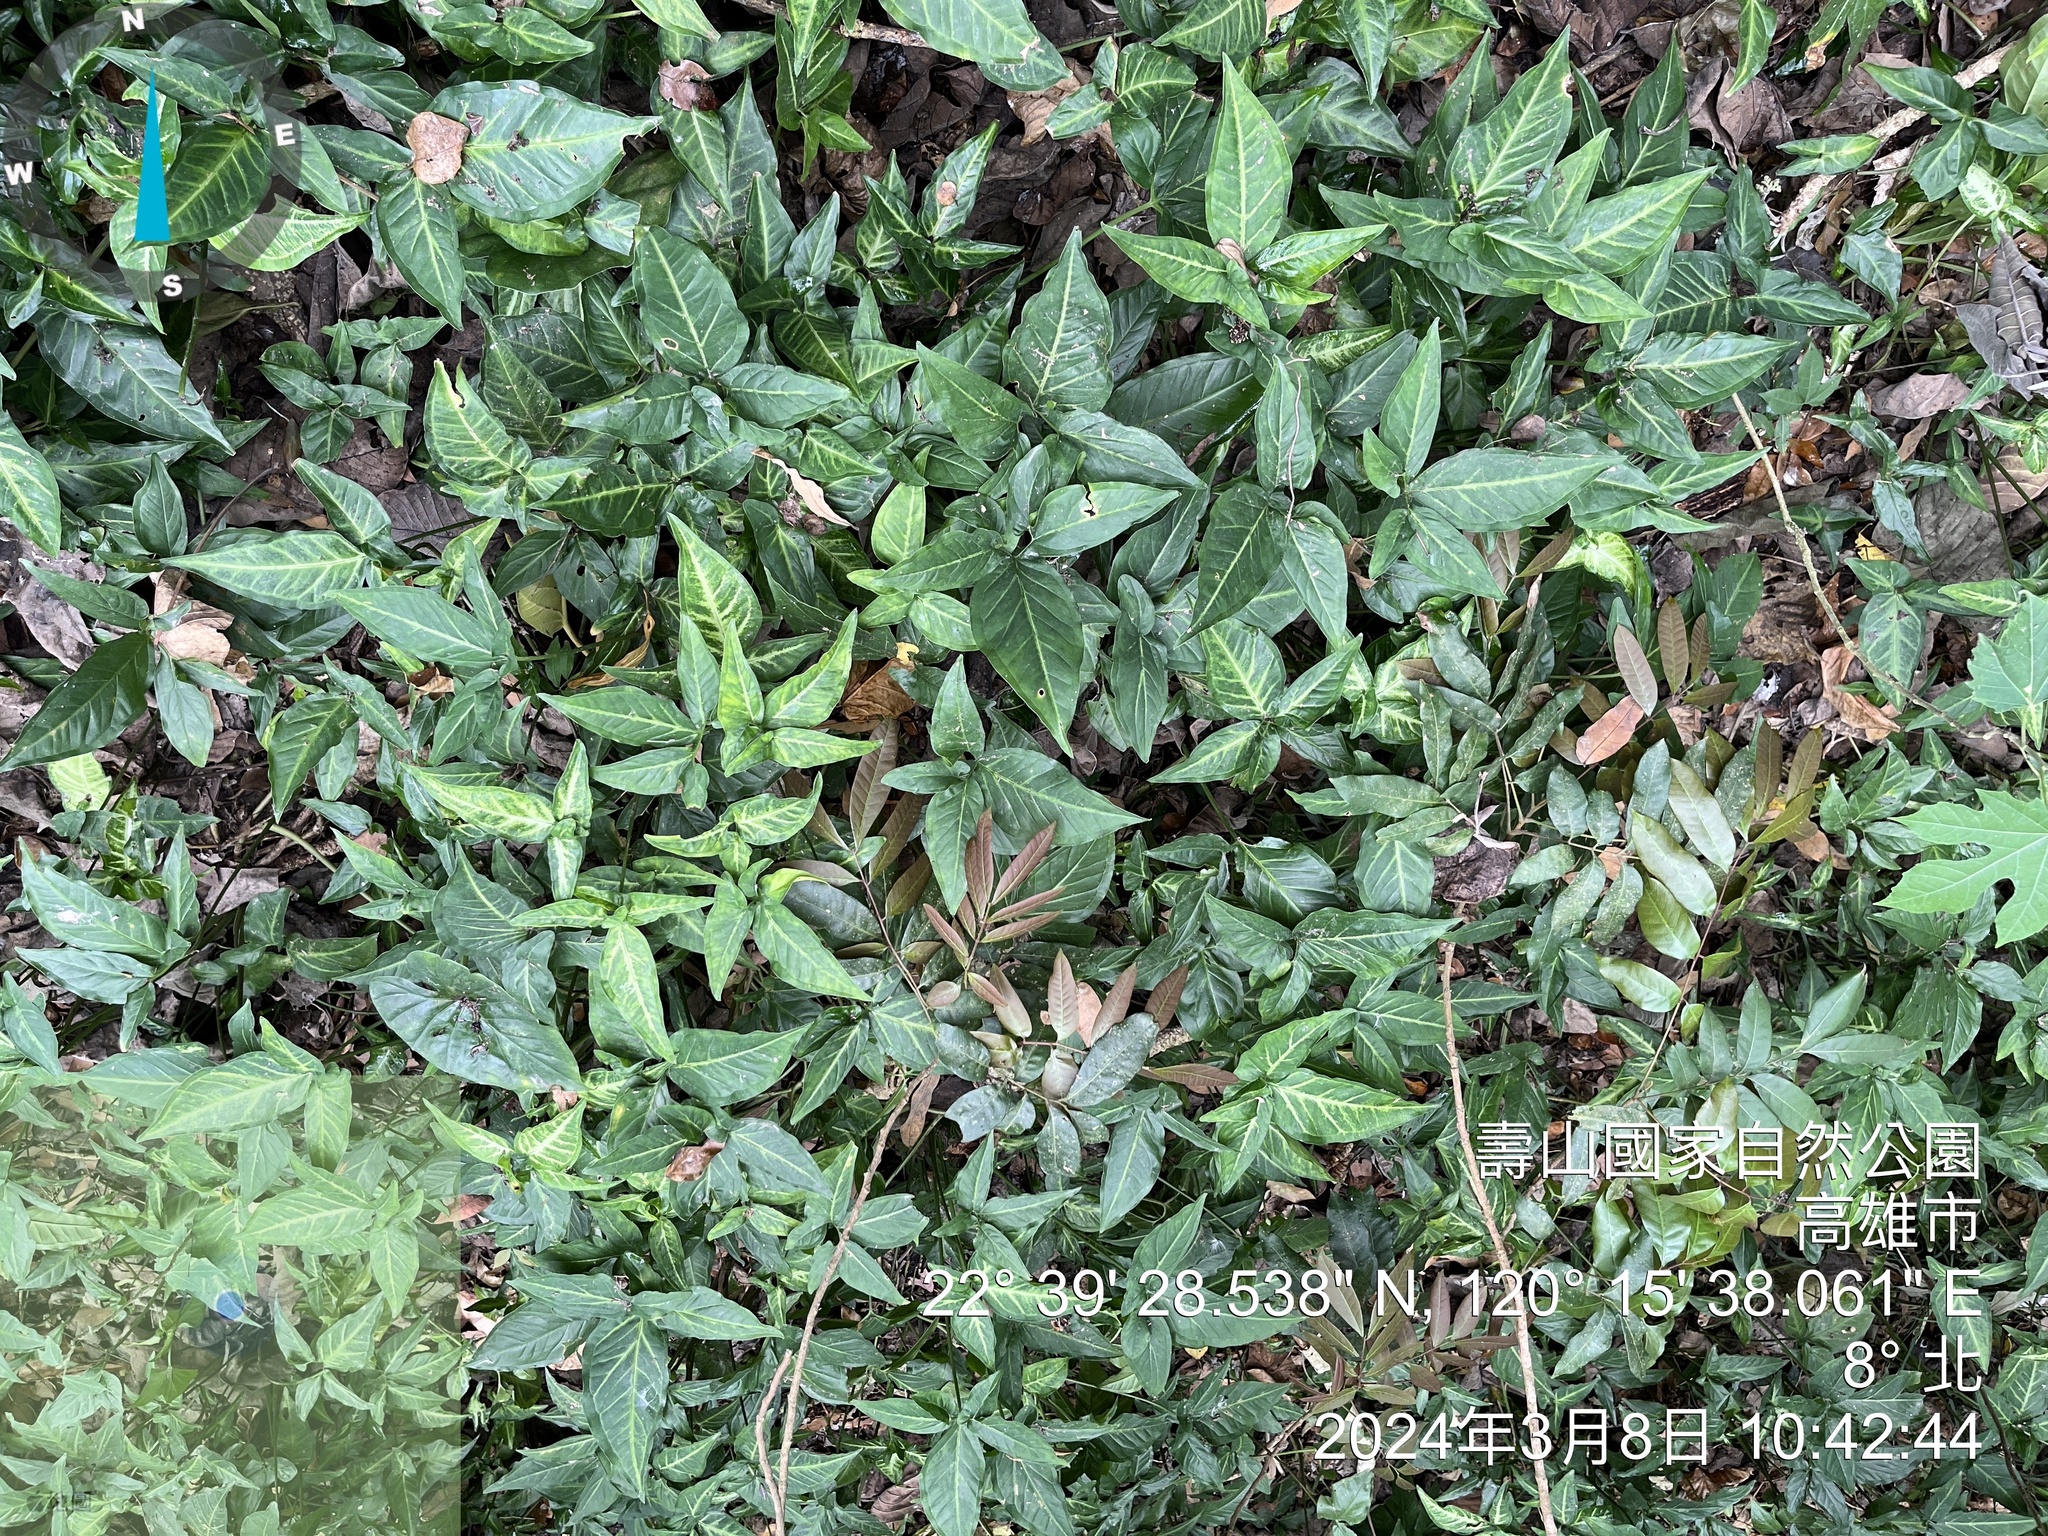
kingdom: Plantae
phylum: Tracheophyta
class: Liliopsida
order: Alismatales
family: Araceae
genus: Syngonium
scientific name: Syngonium podophyllum
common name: American evergreen
